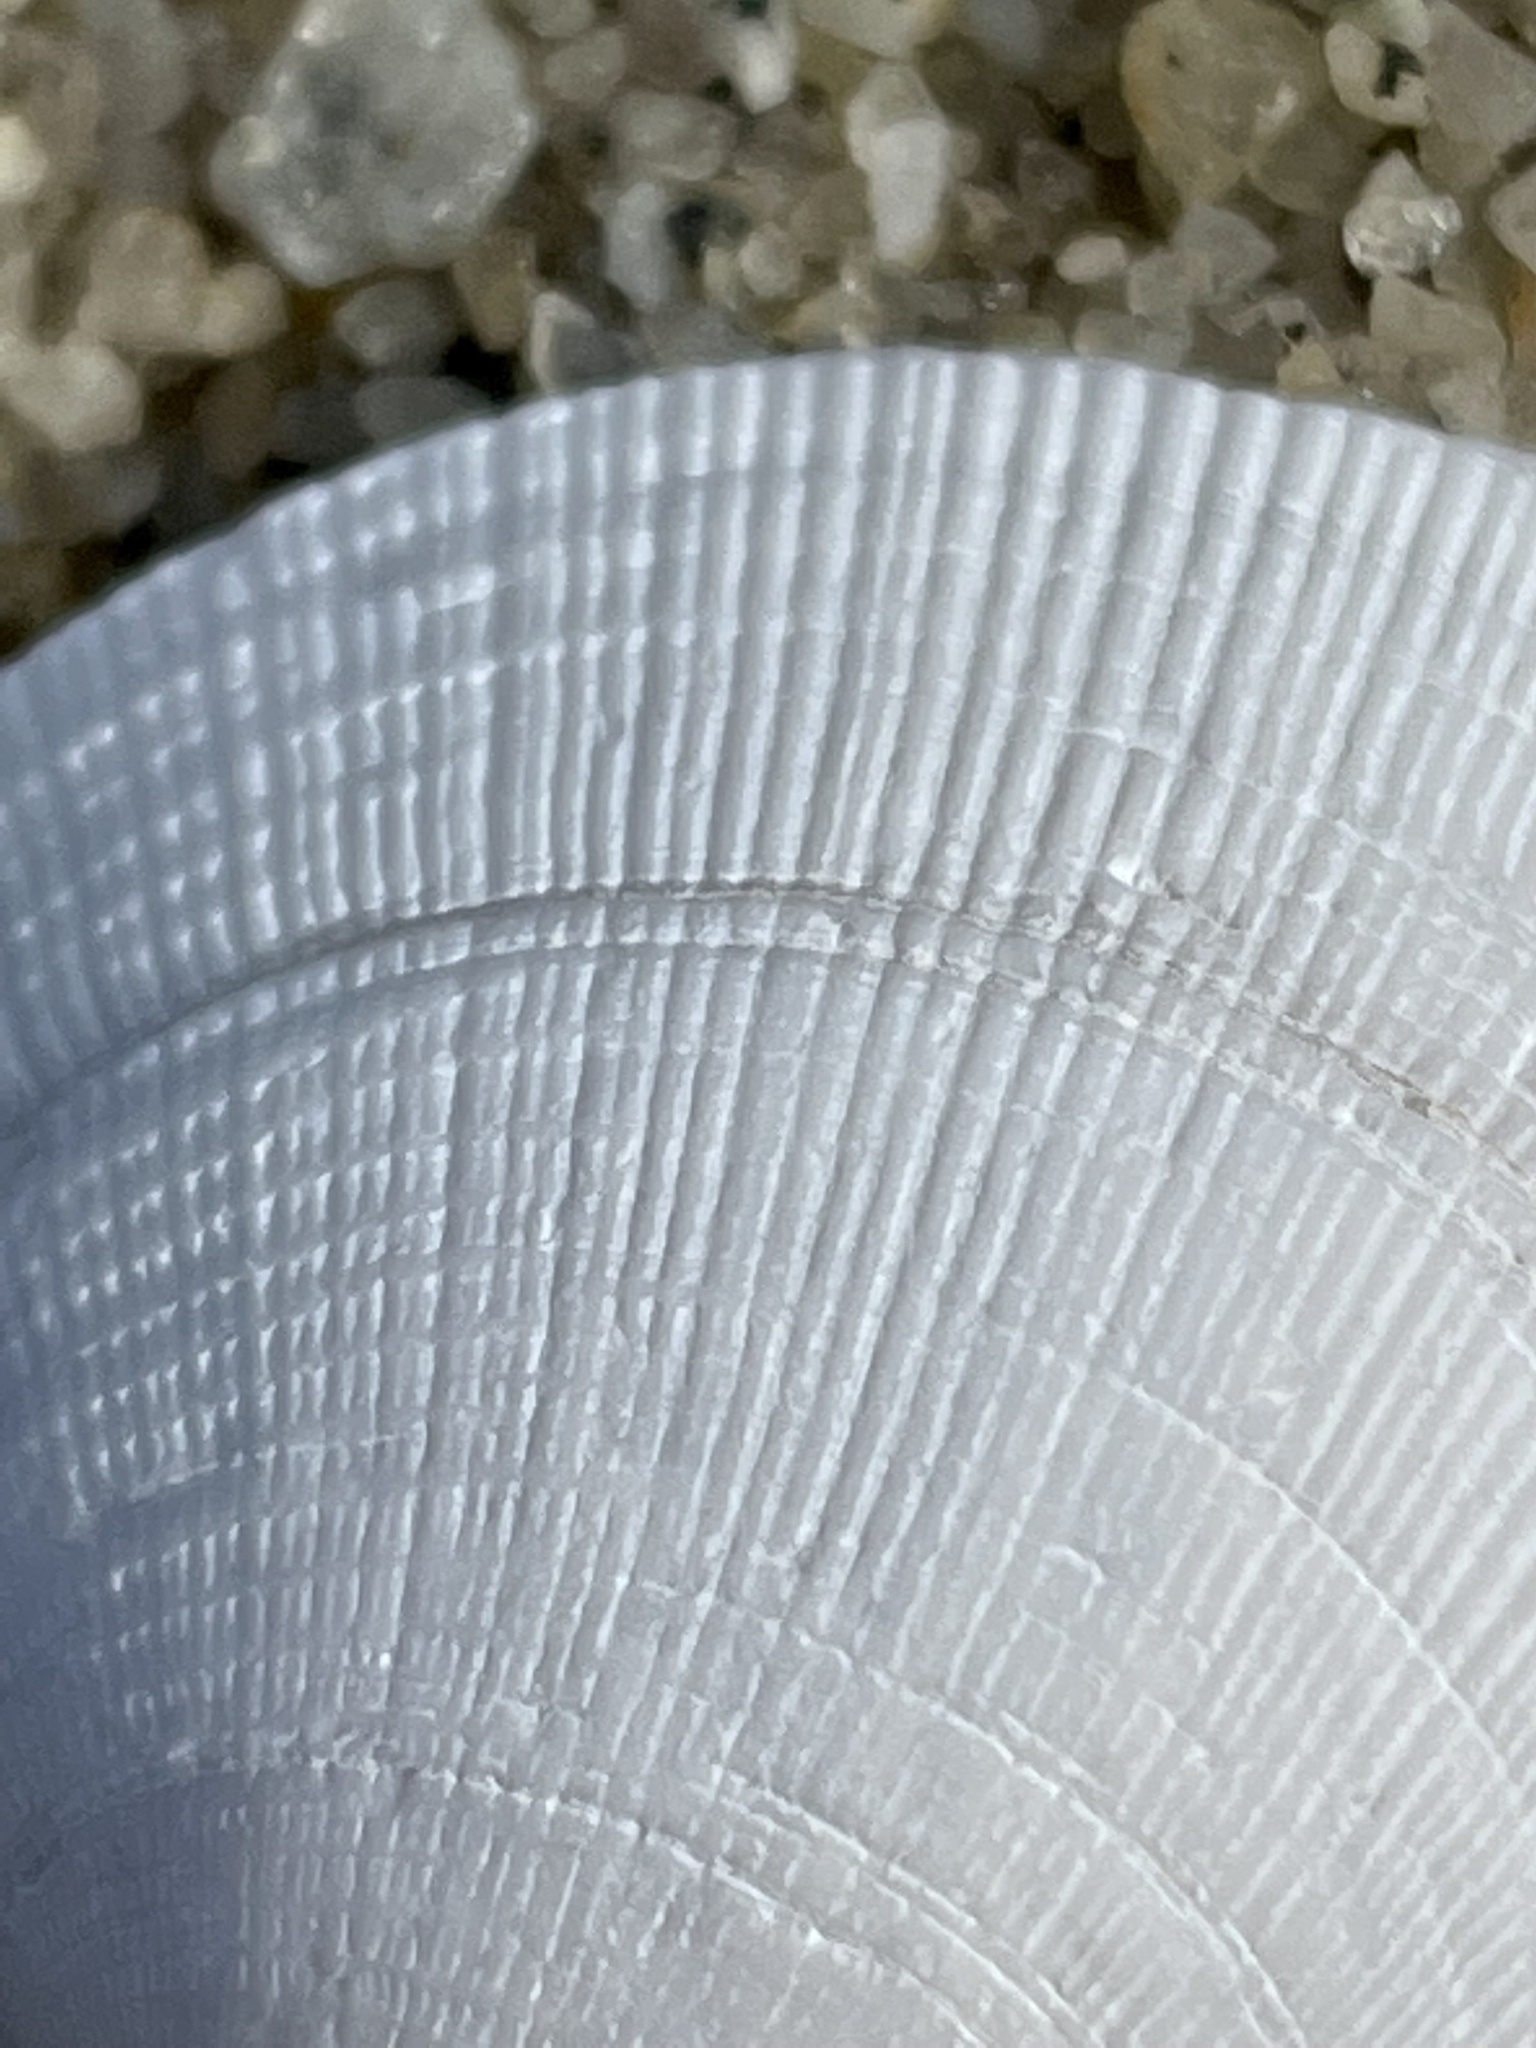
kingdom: Animalia
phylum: Mollusca
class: Bivalvia
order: Venerida
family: Veneridae
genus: Leukoma
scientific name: Leukoma staminea
